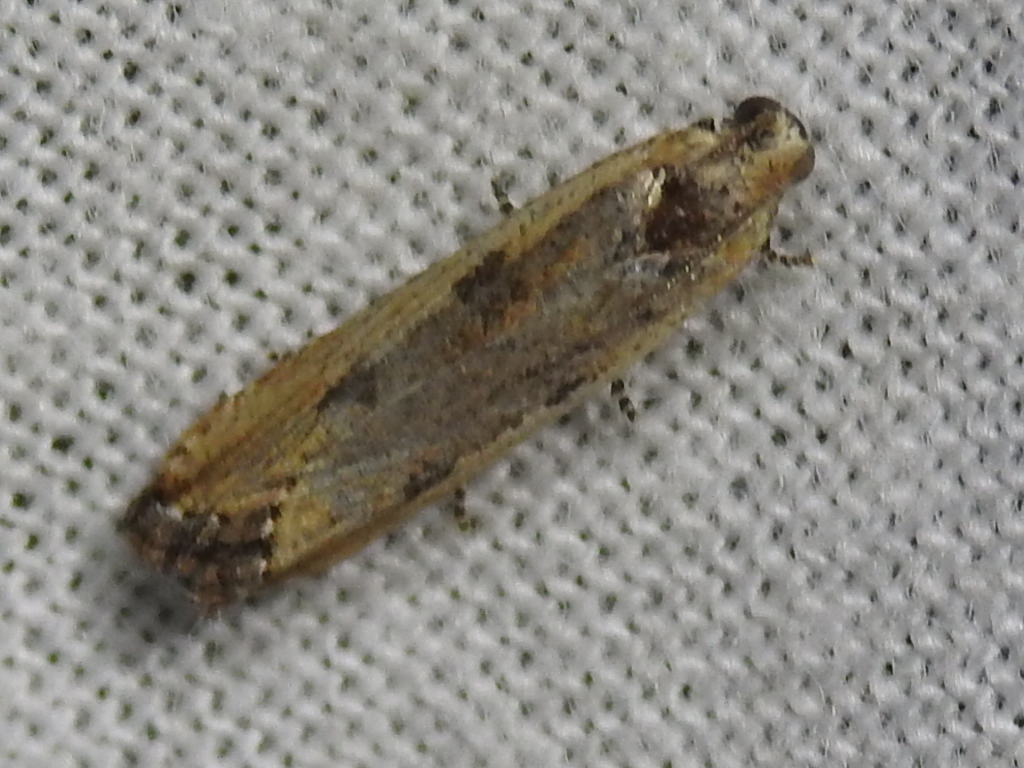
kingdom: Animalia
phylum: Arthropoda
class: Insecta
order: Lepidoptera
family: Tortricidae
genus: Bactra
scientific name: Bactra verutana
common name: Javelin moth
